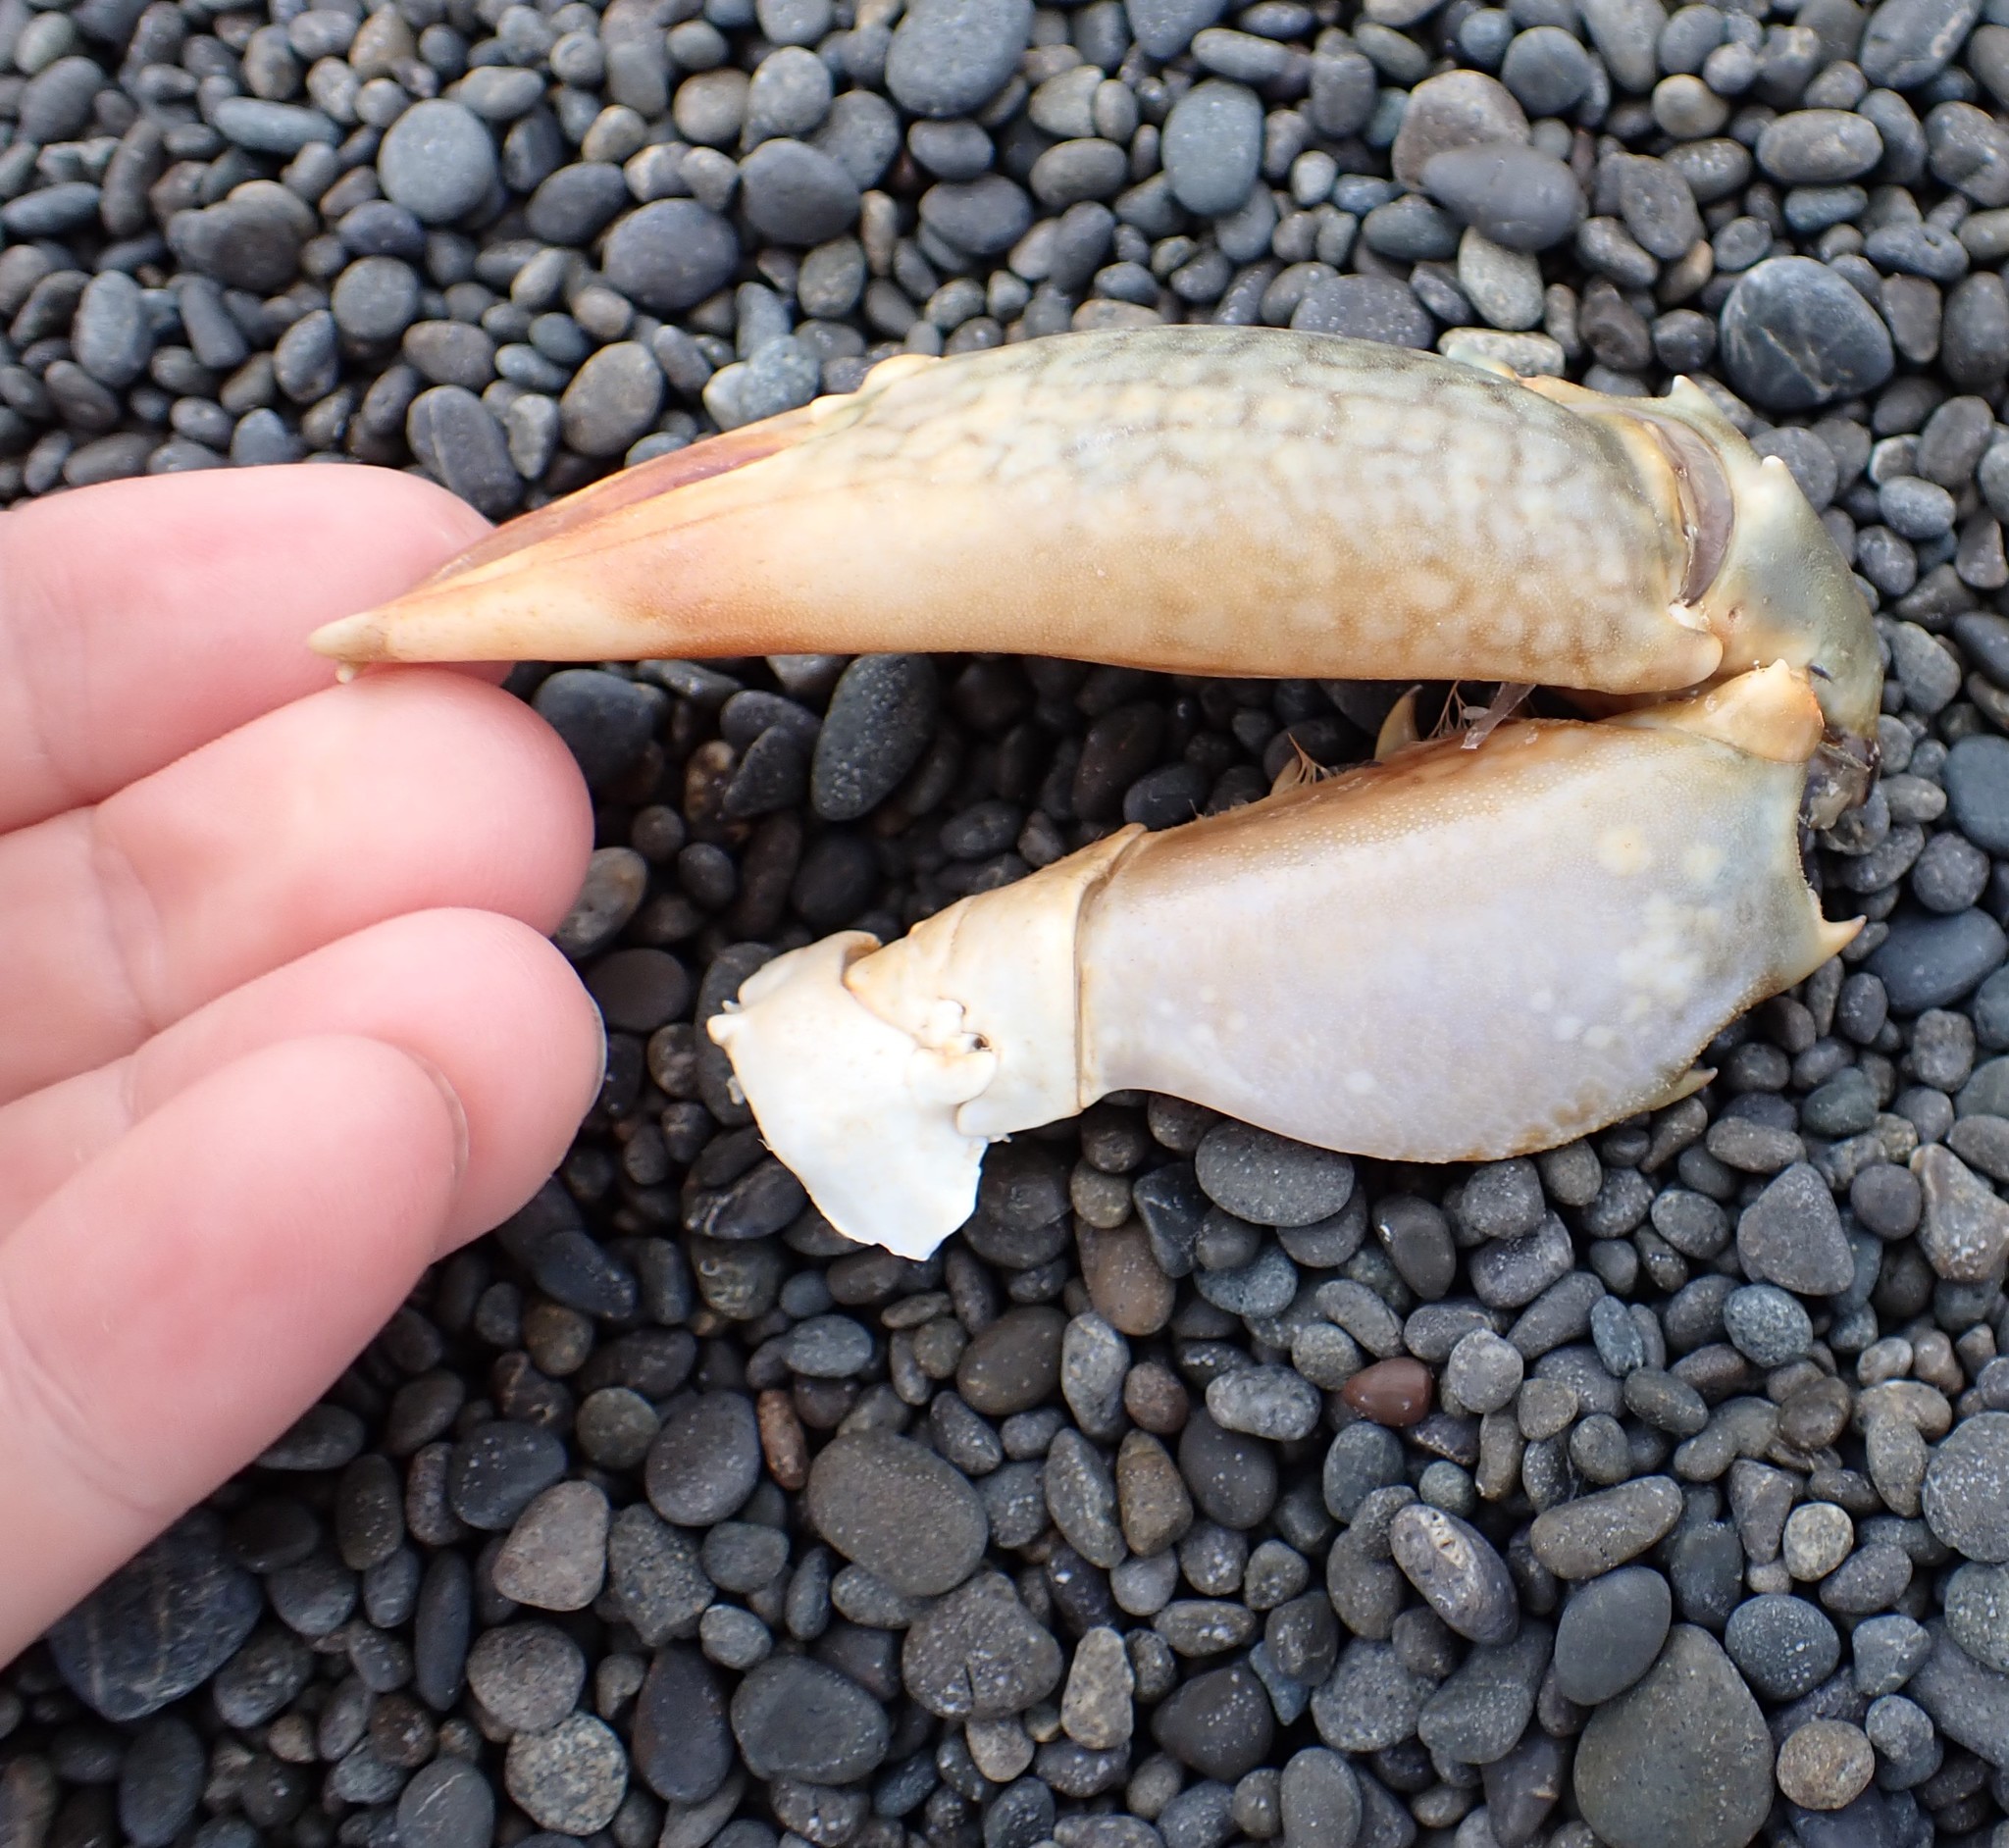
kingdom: Animalia
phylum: Arthropoda
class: Malacostraca
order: Decapoda
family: Portunidae
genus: Scylla
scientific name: Scylla serrata
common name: Giant mud crab
